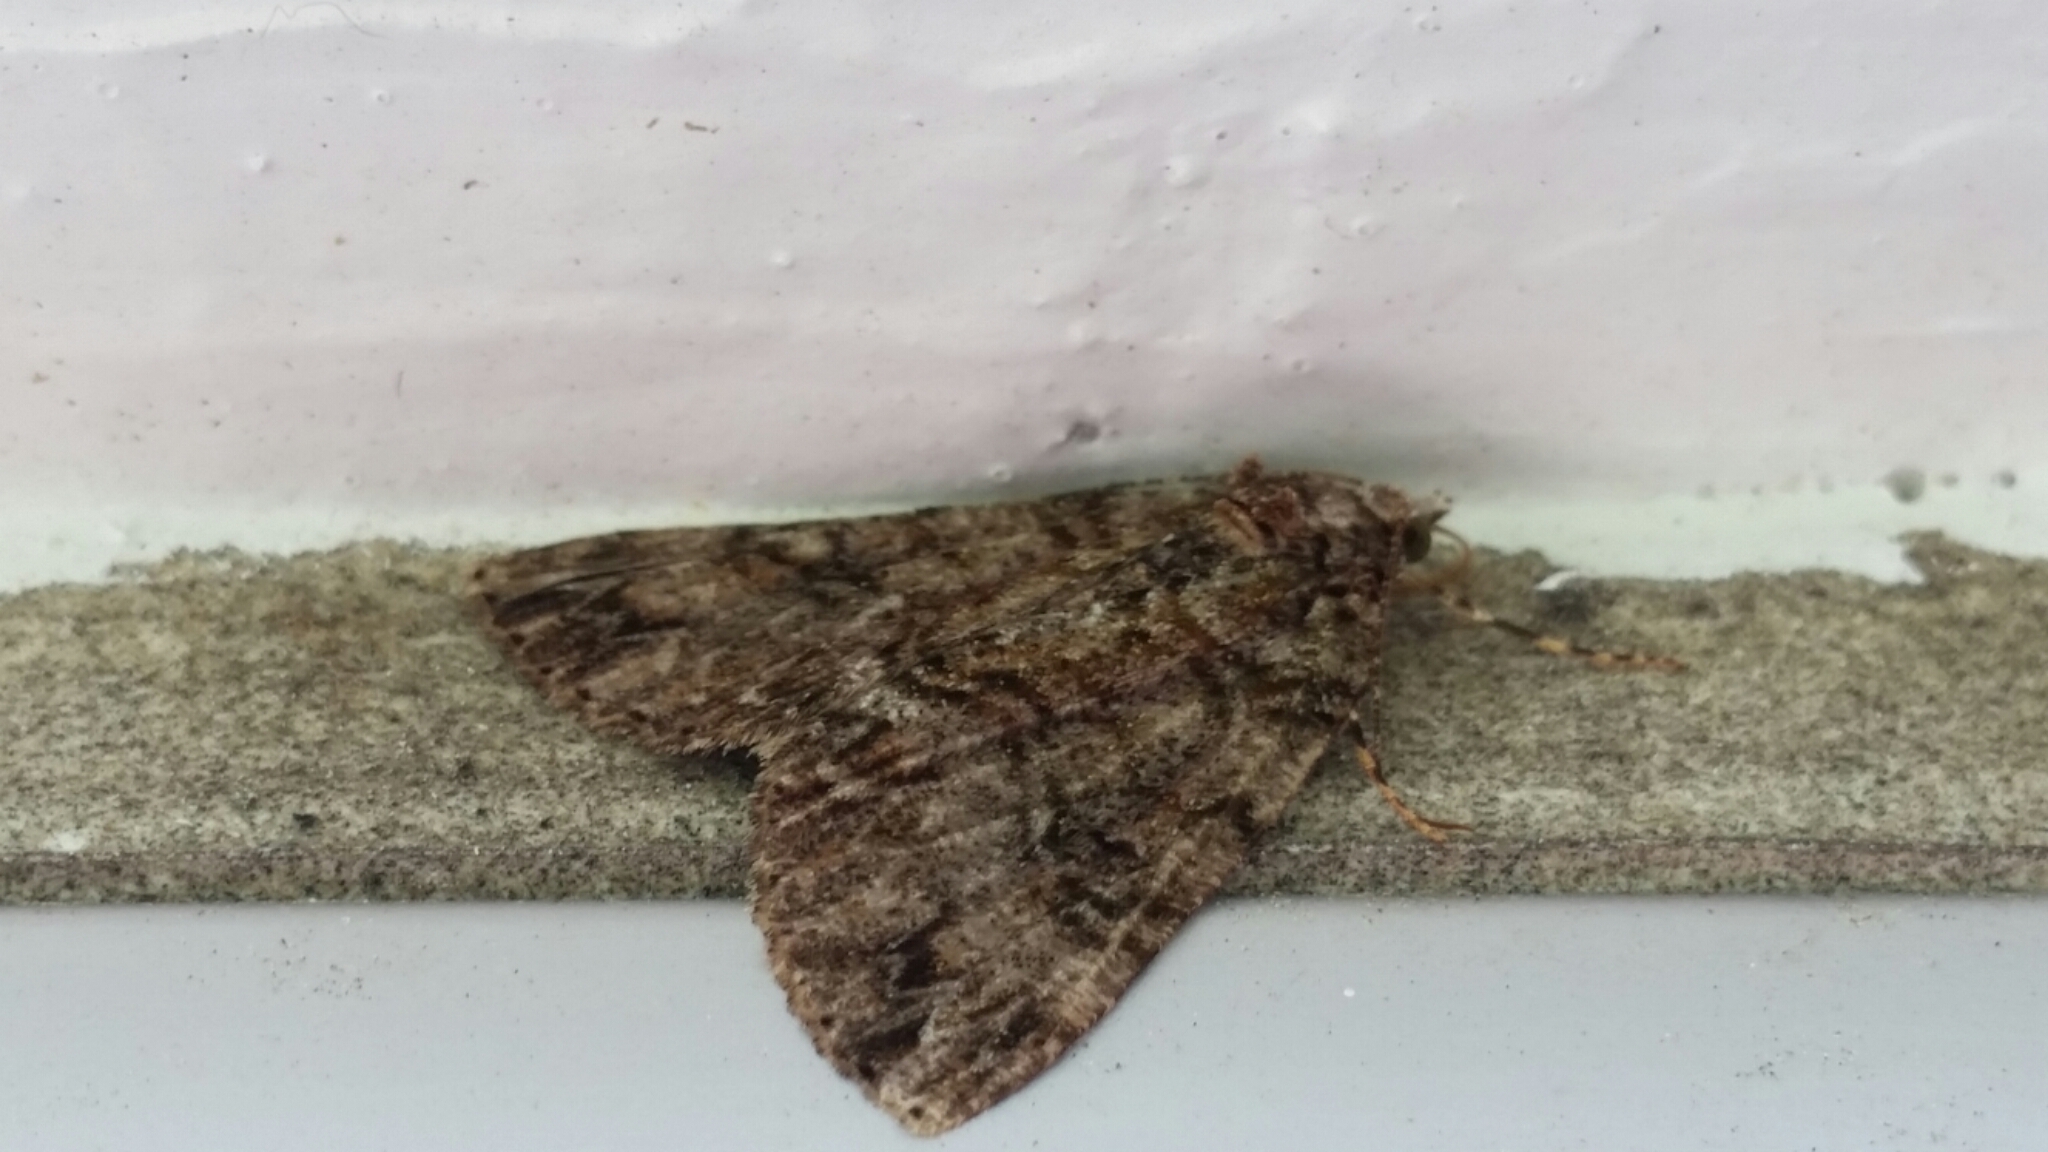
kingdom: Animalia
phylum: Arthropoda
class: Insecta
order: Lepidoptera
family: Geometridae
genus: Pseudocoremia
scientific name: Pseudocoremia suavis
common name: Common forest looper
